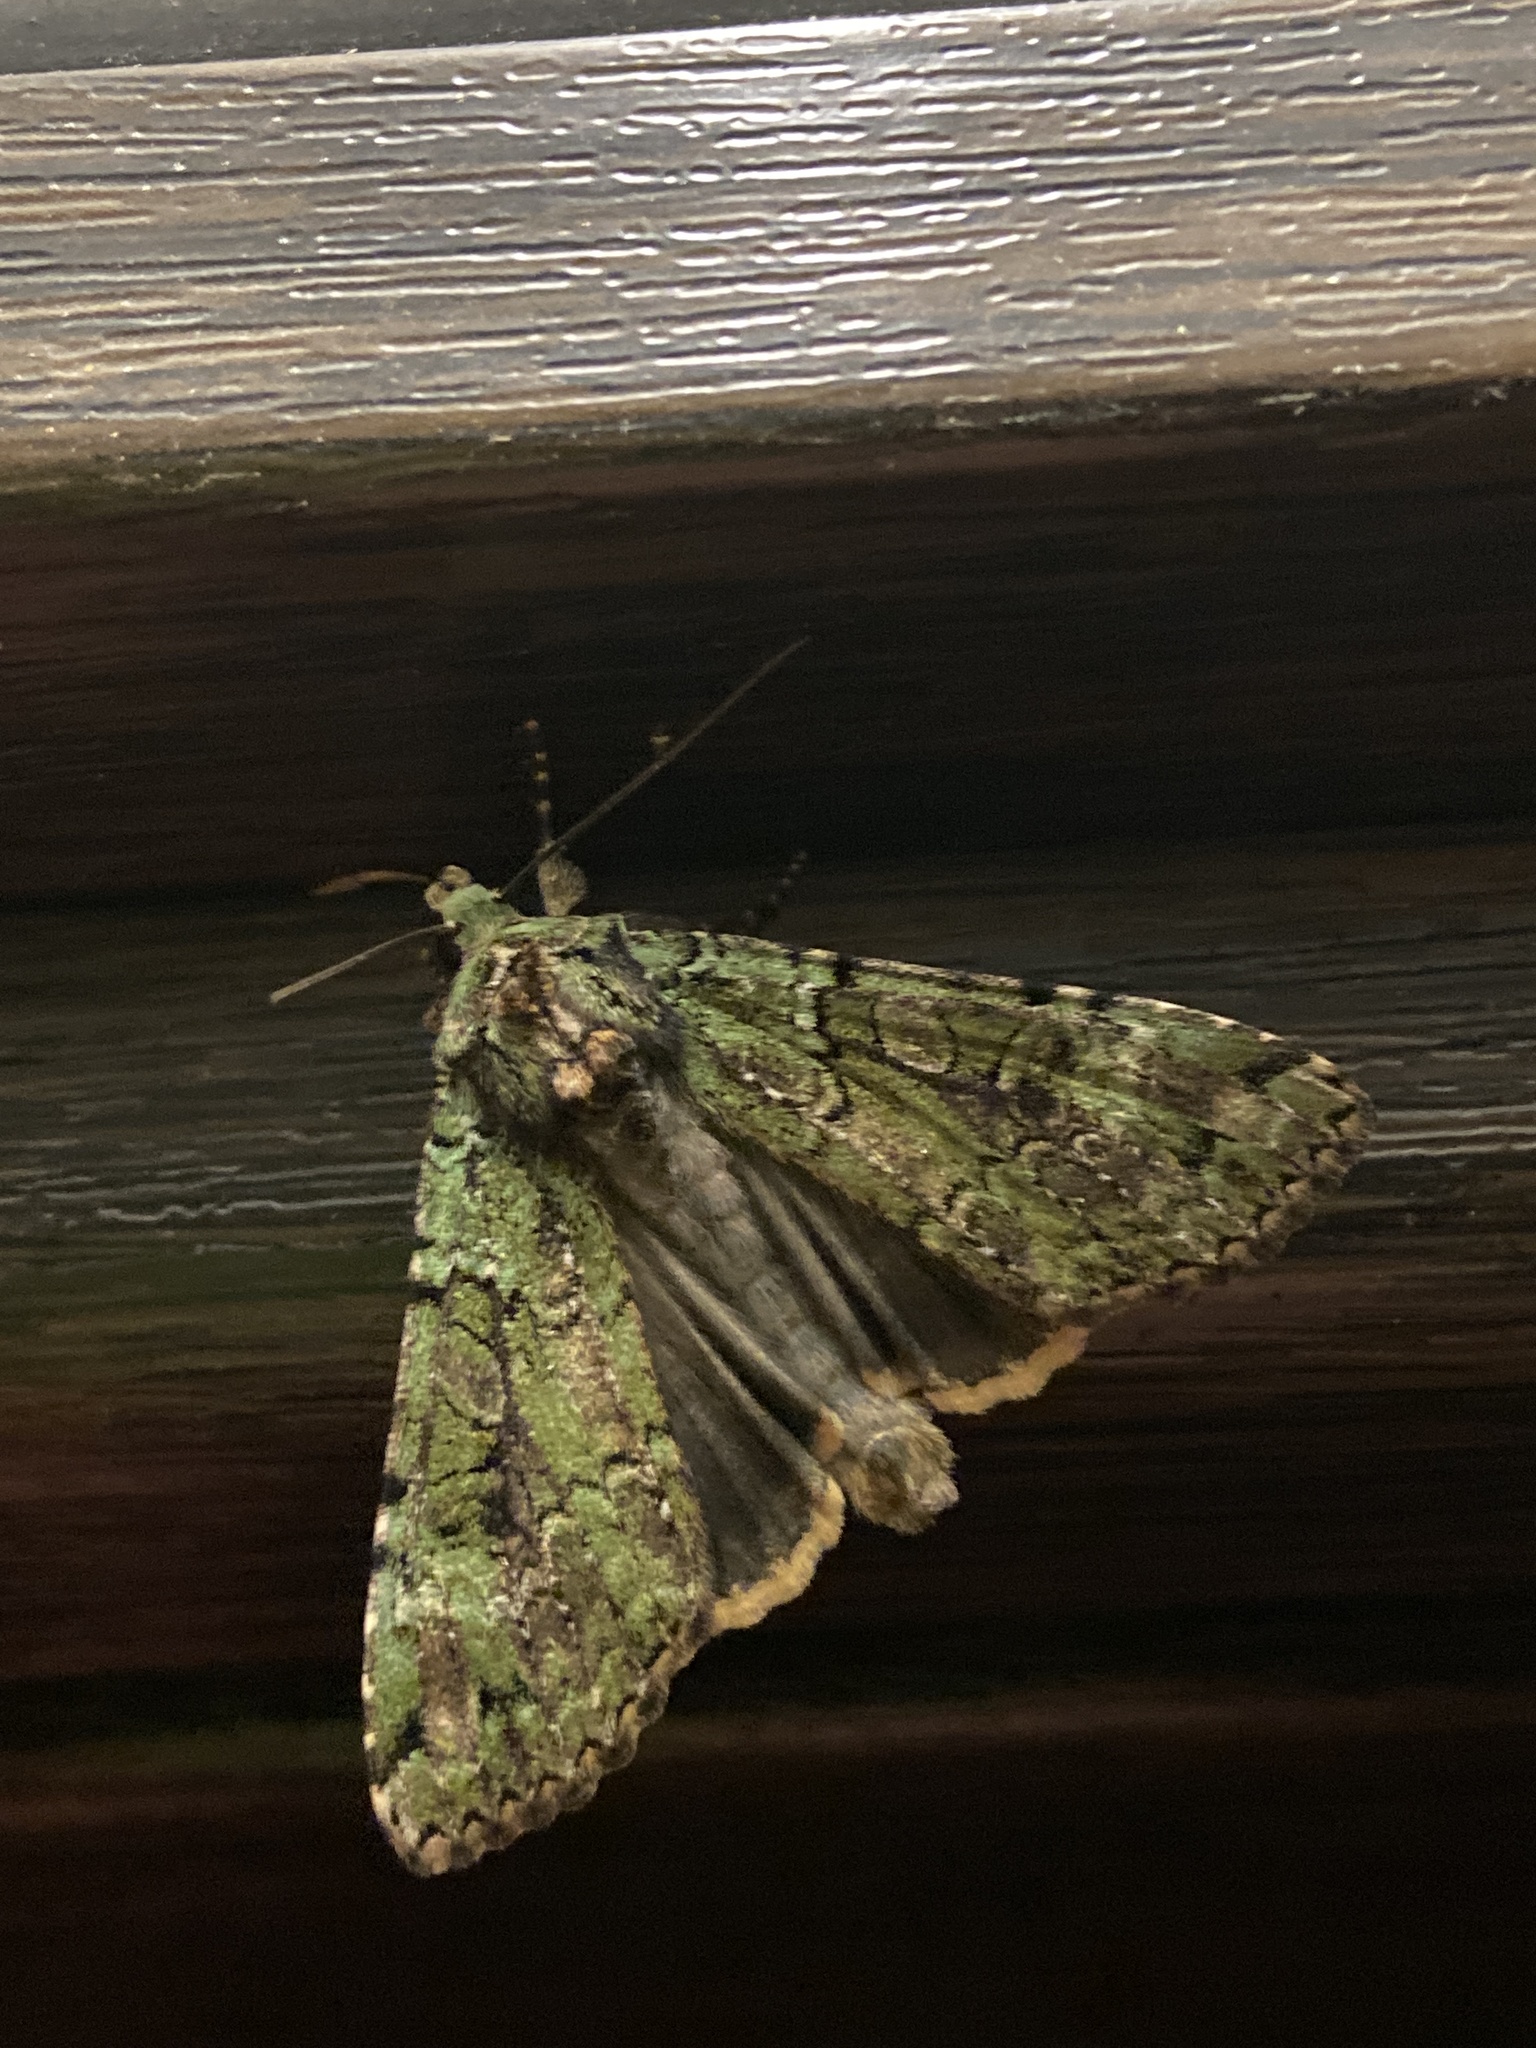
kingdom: Animalia
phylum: Arthropoda
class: Insecta
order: Lepidoptera
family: Noctuidae
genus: Anaplectoides
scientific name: Anaplectoides prasina
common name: Green arches
